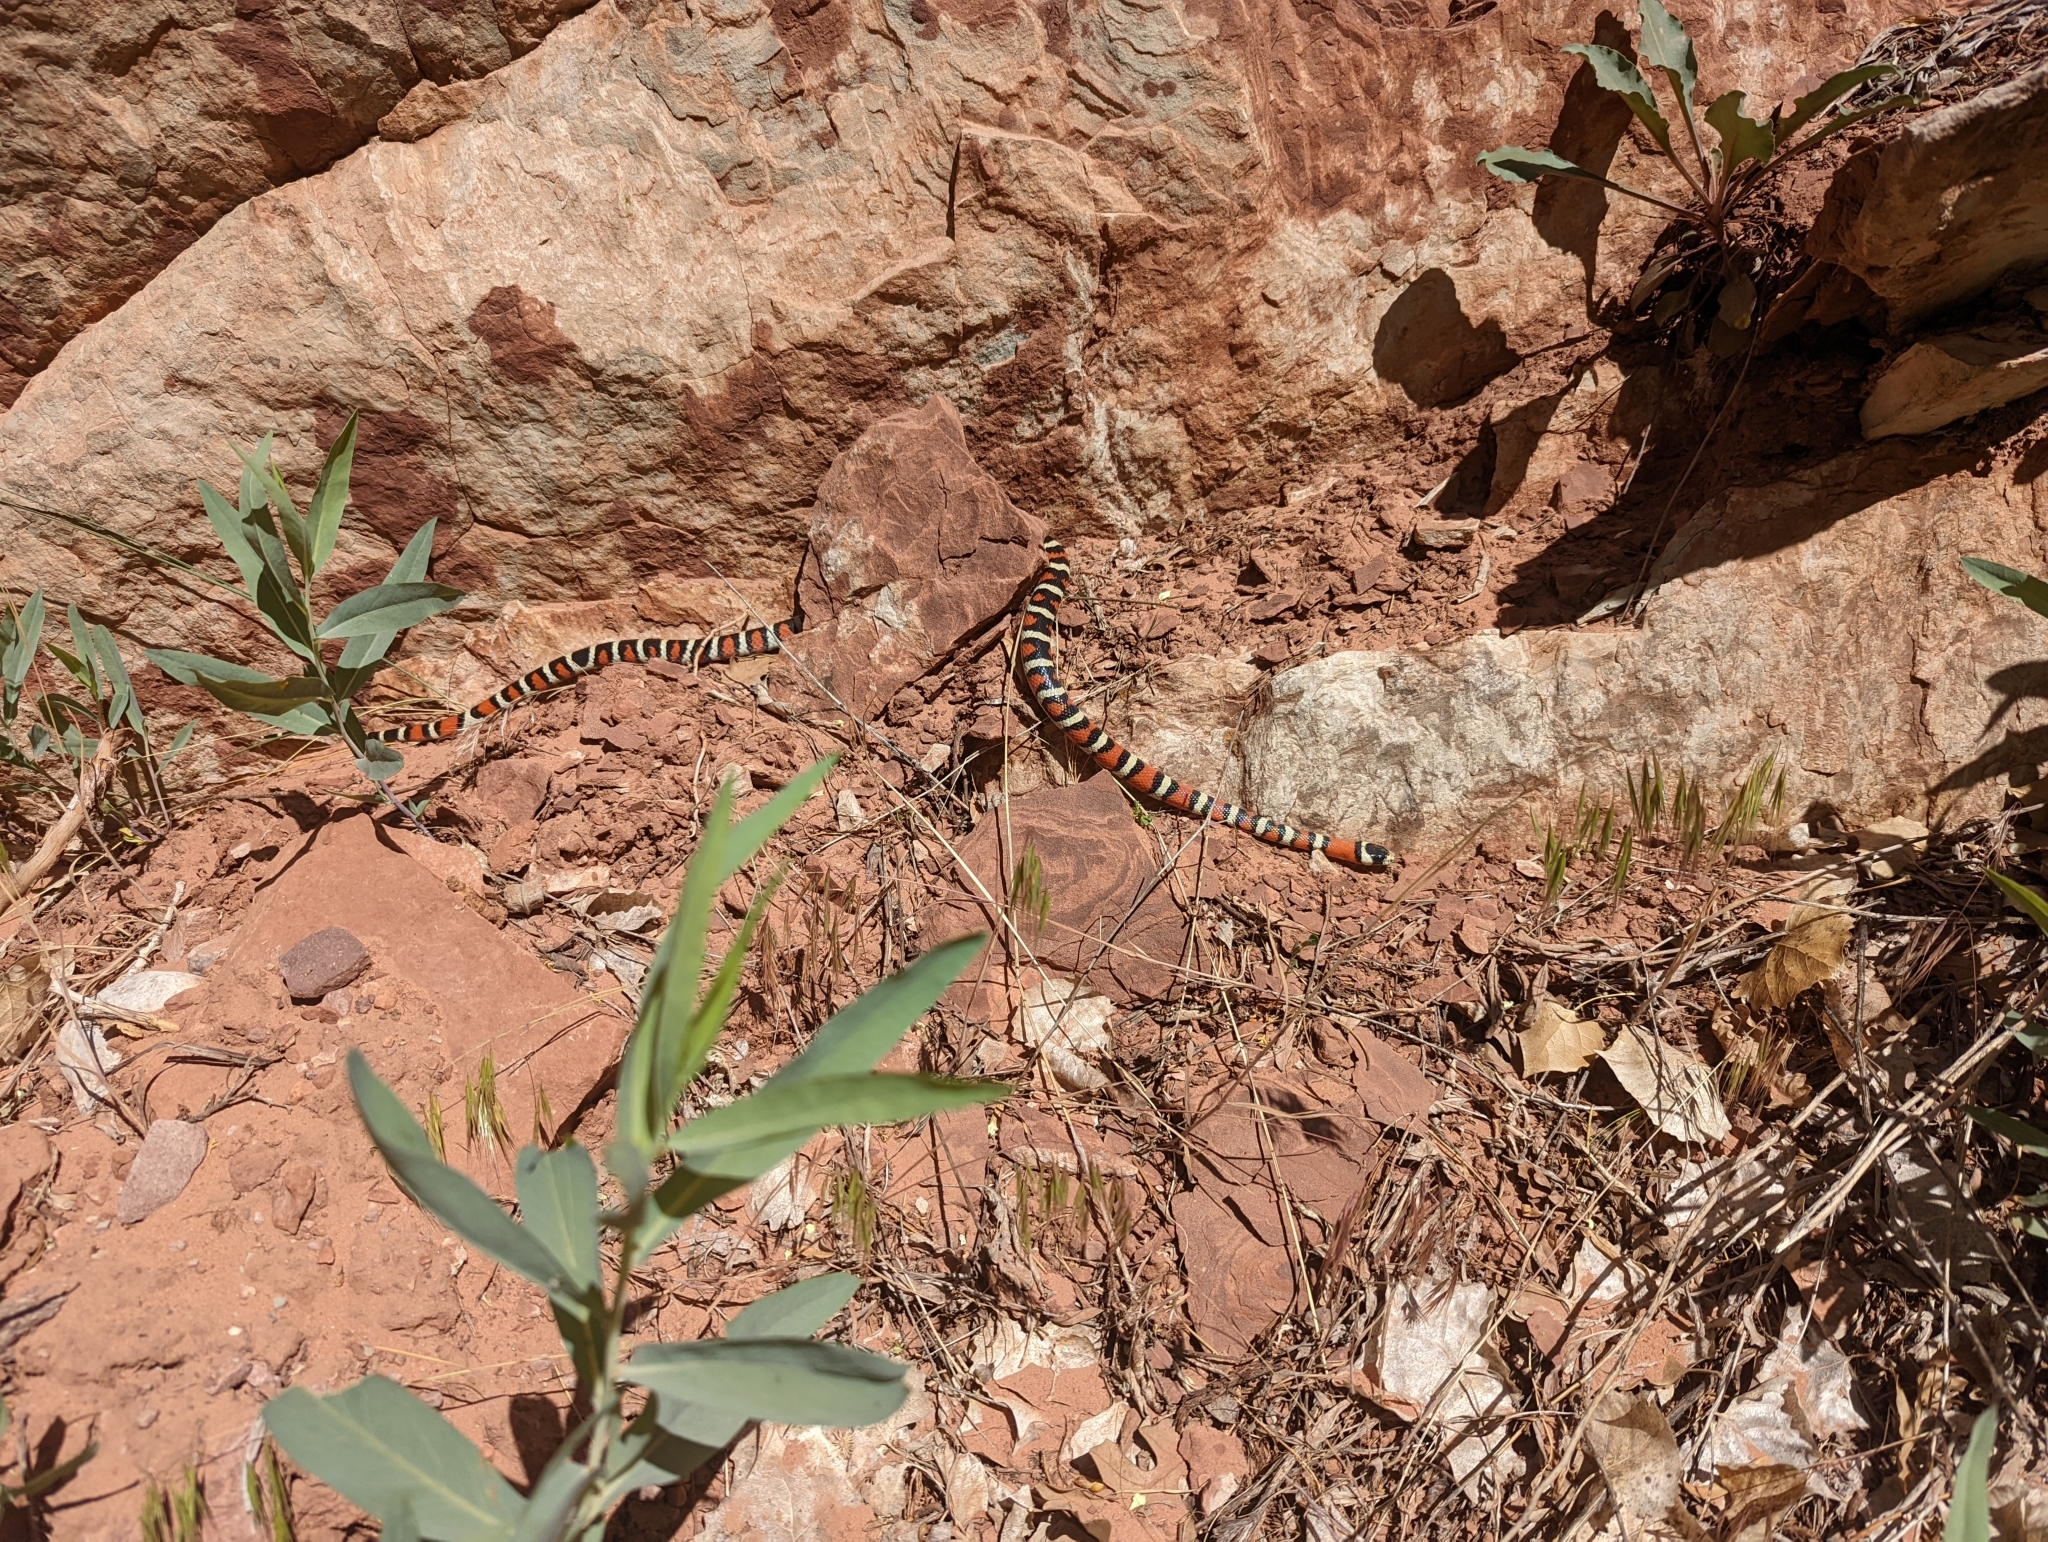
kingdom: Animalia
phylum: Chordata
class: Squamata
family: Colubridae
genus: Lampropeltis
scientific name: Lampropeltis pyromelana
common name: Sonoran mountain kingsnake
